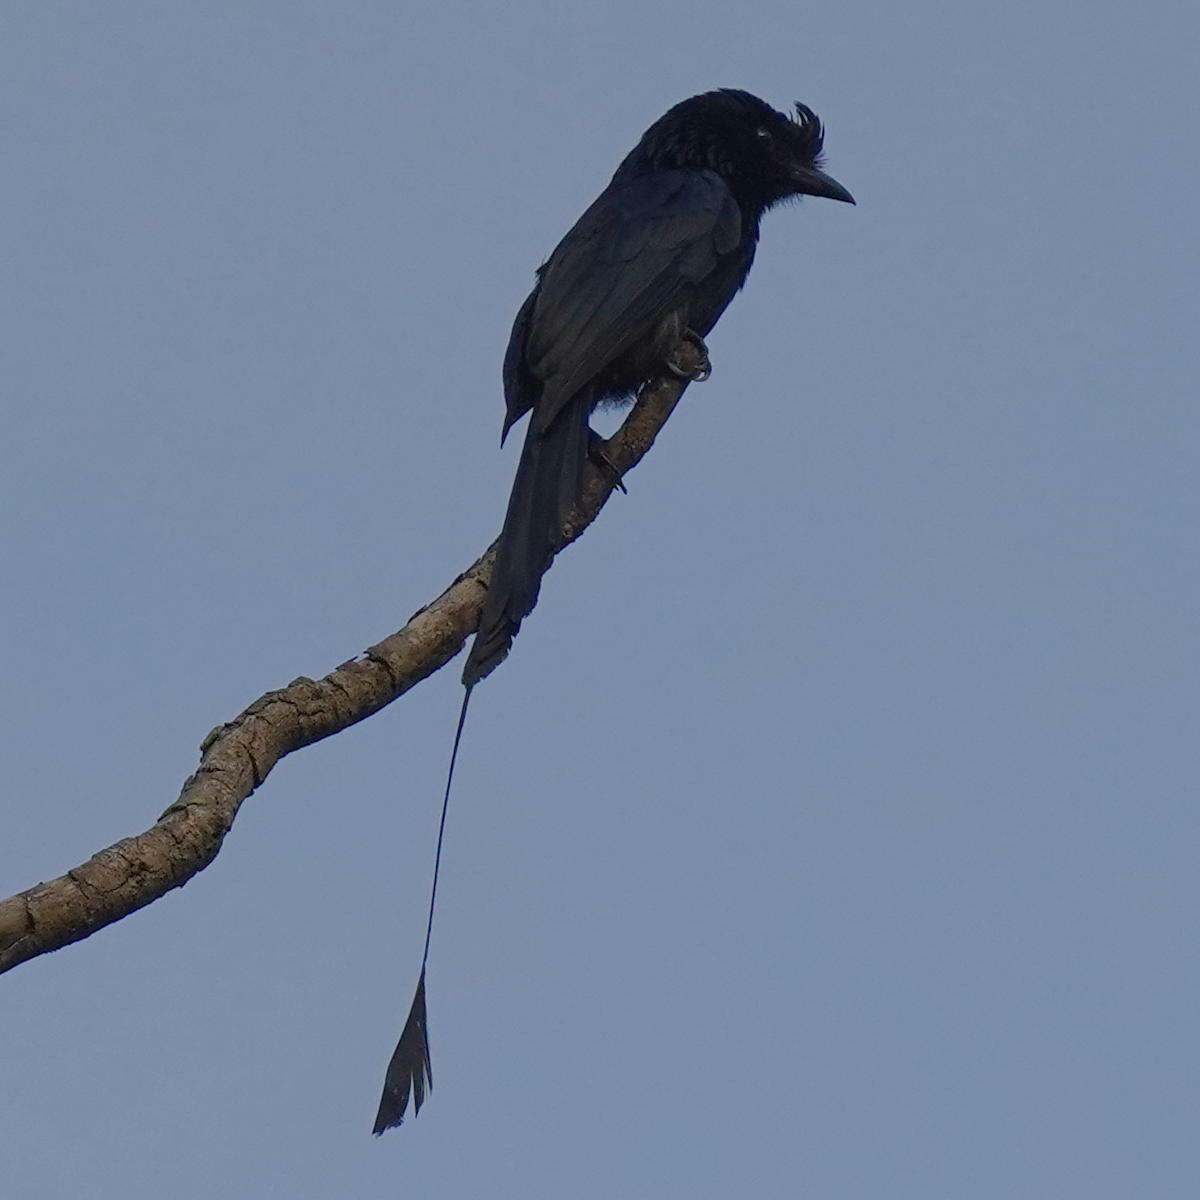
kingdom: Animalia
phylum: Chordata
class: Aves
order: Passeriformes
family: Dicruridae
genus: Dicrurus
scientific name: Dicrurus paradiseus
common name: Greater racket-tailed drongo
